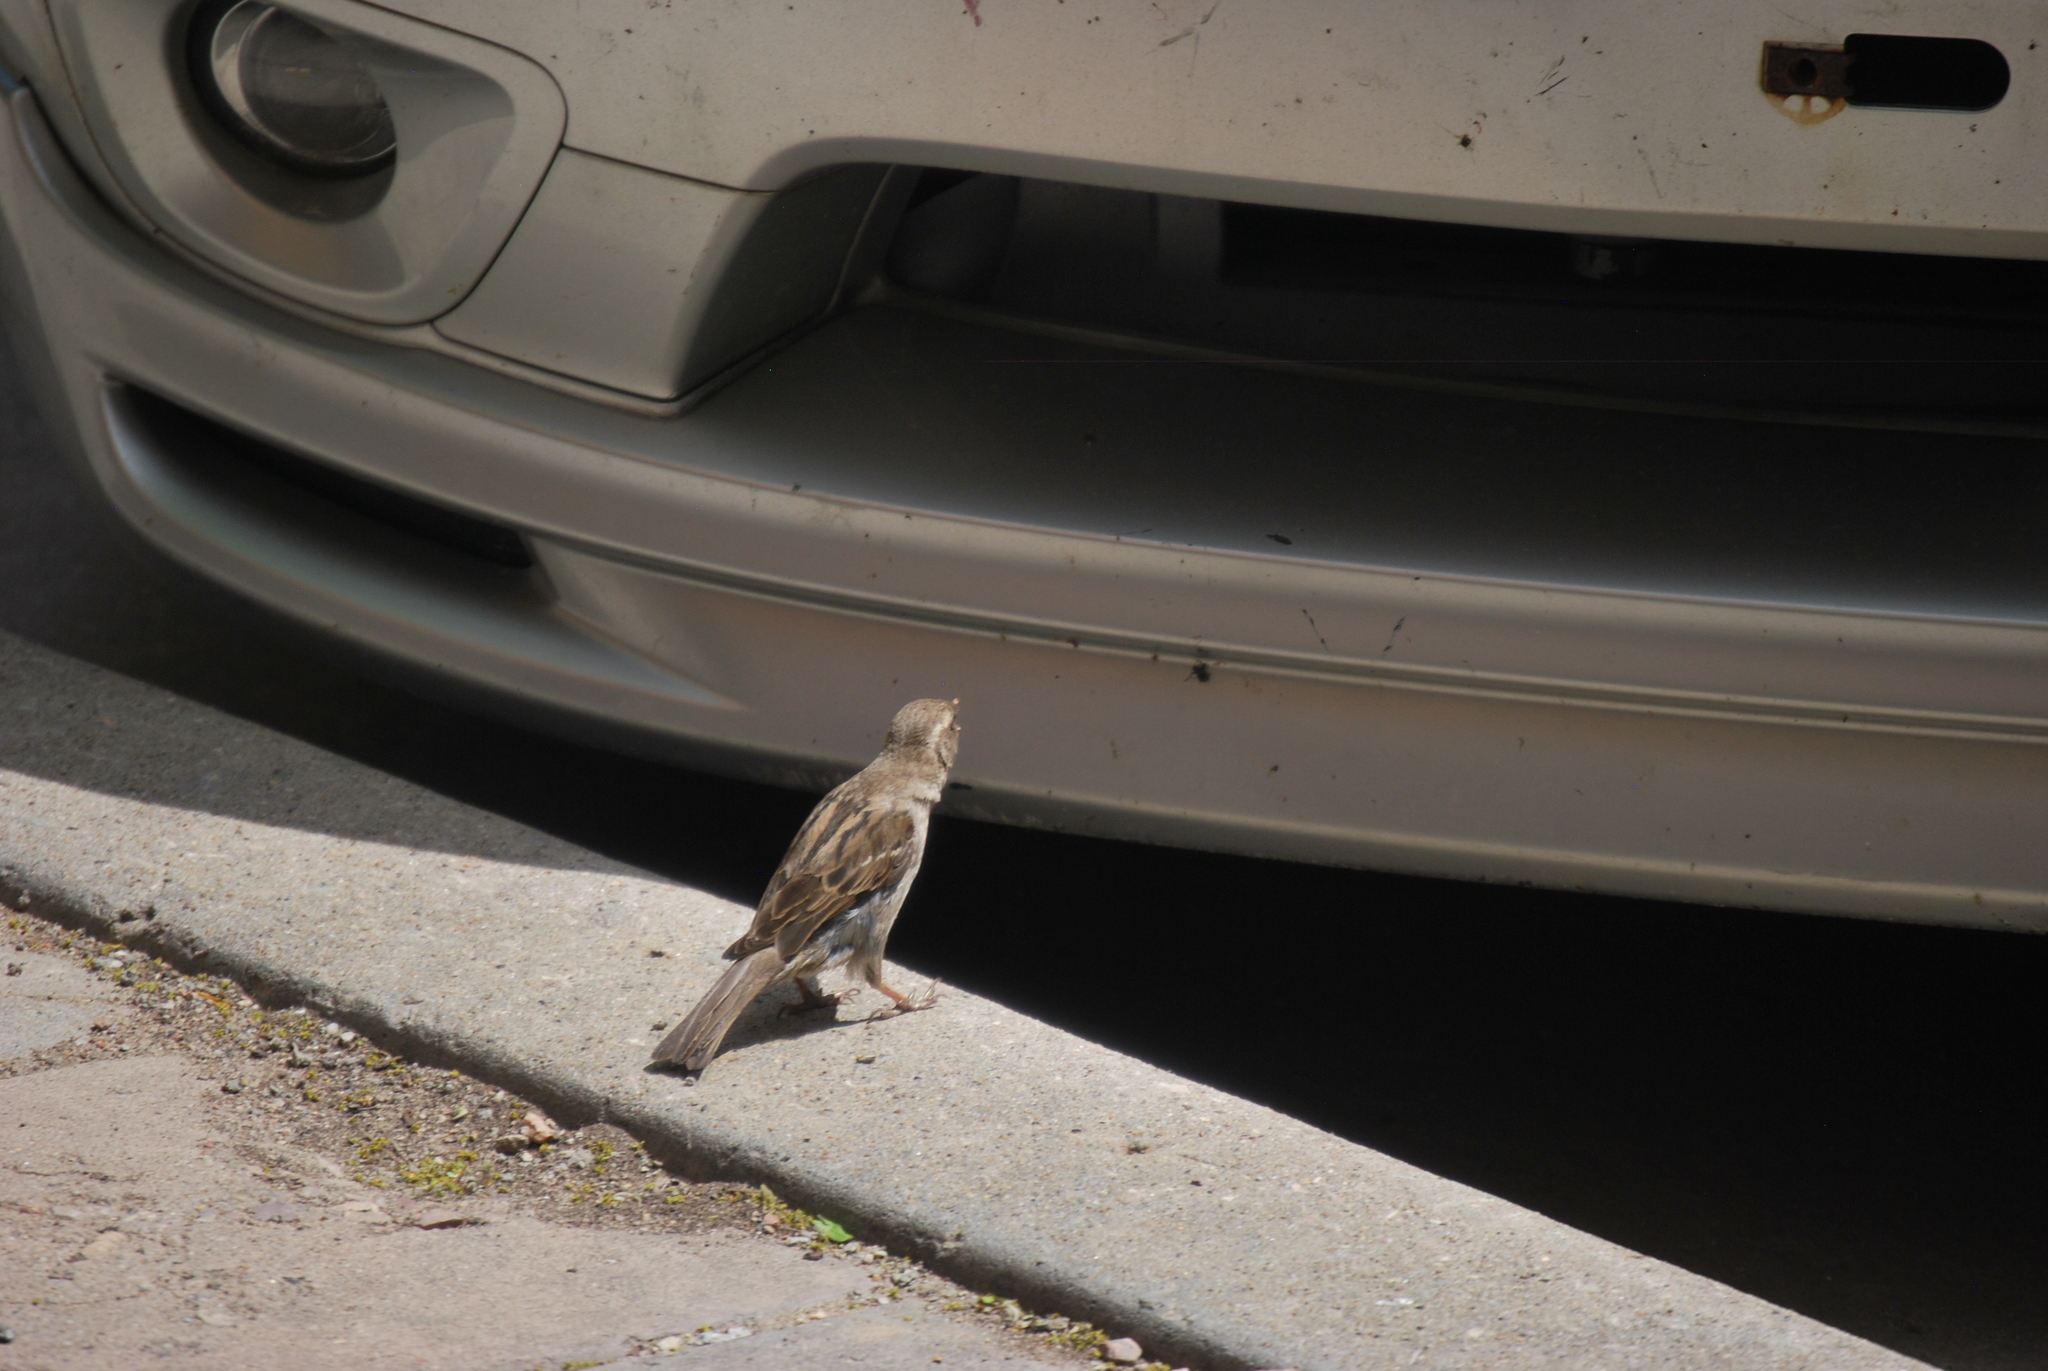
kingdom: Animalia
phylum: Chordata
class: Aves
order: Passeriformes
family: Passeridae
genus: Passer
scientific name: Passer domesticus
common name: House sparrow
